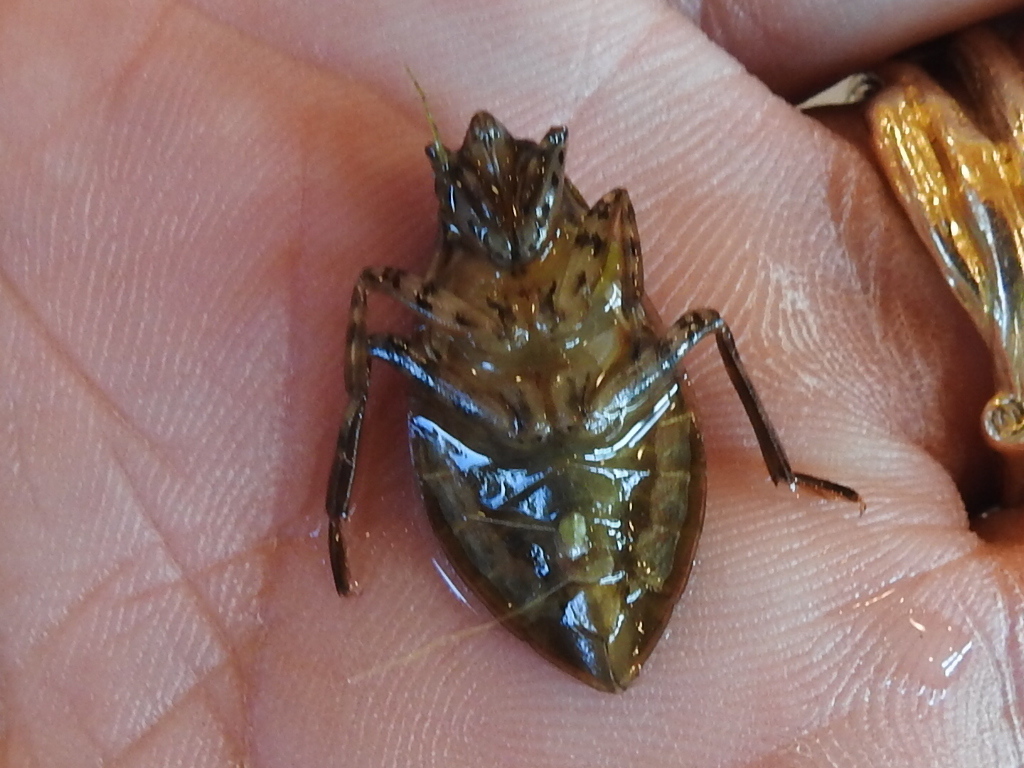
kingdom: Animalia
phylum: Arthropoda
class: Insecta
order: Hemiptera
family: Belostomatidae
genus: Belostoma
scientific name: Belostoma
